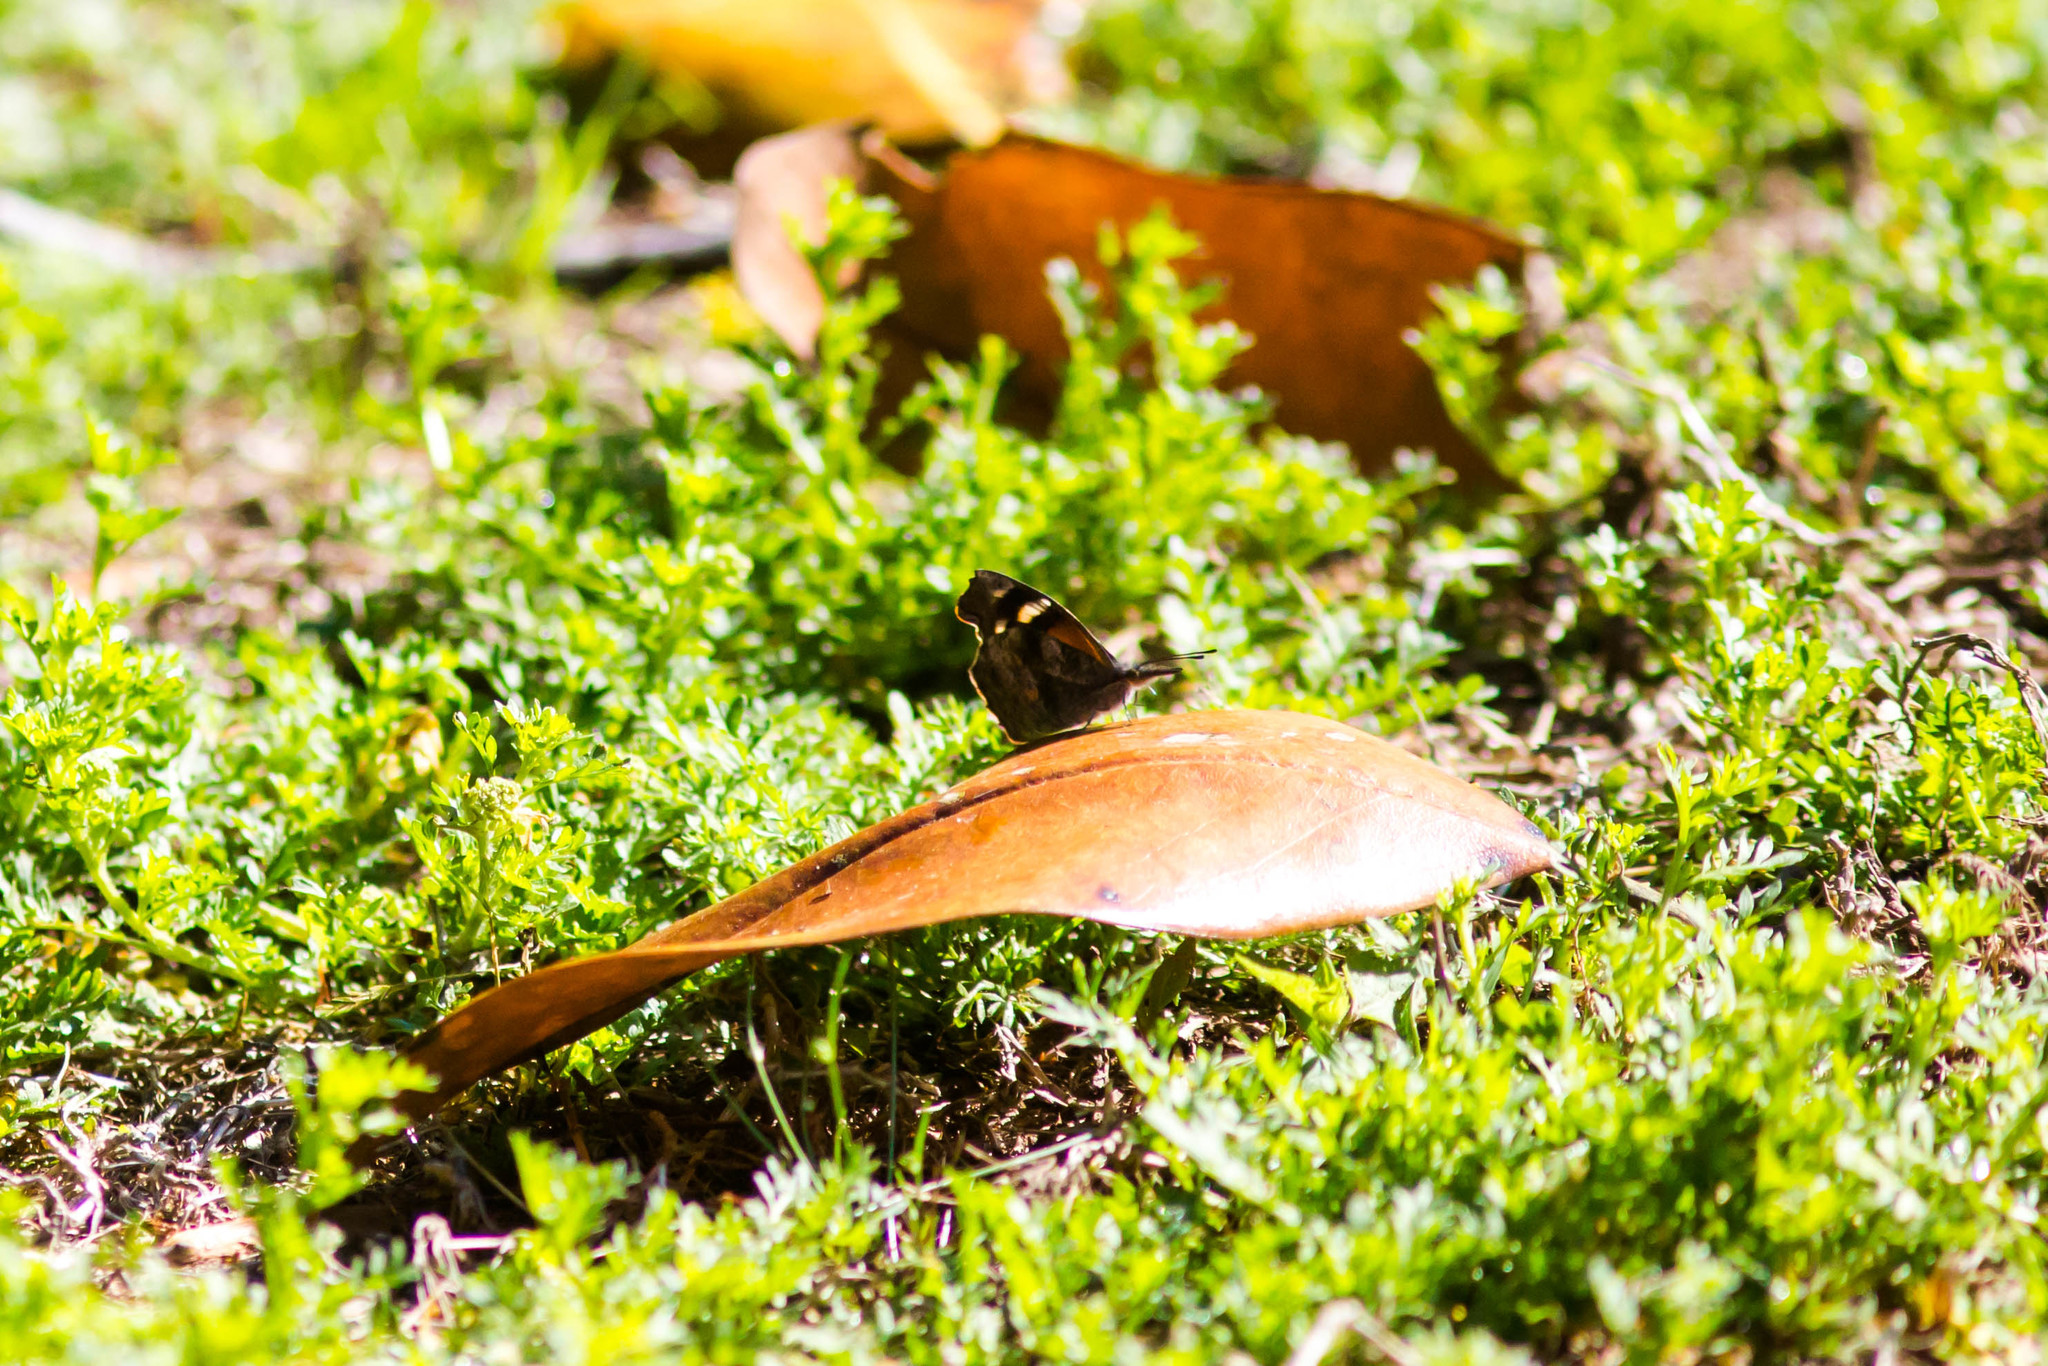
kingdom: Animalia
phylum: Arthropoda
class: Insecta
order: Lepidoptera
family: Nymphalidae
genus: Libytheana
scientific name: Libytheana carinenta
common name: American snout
